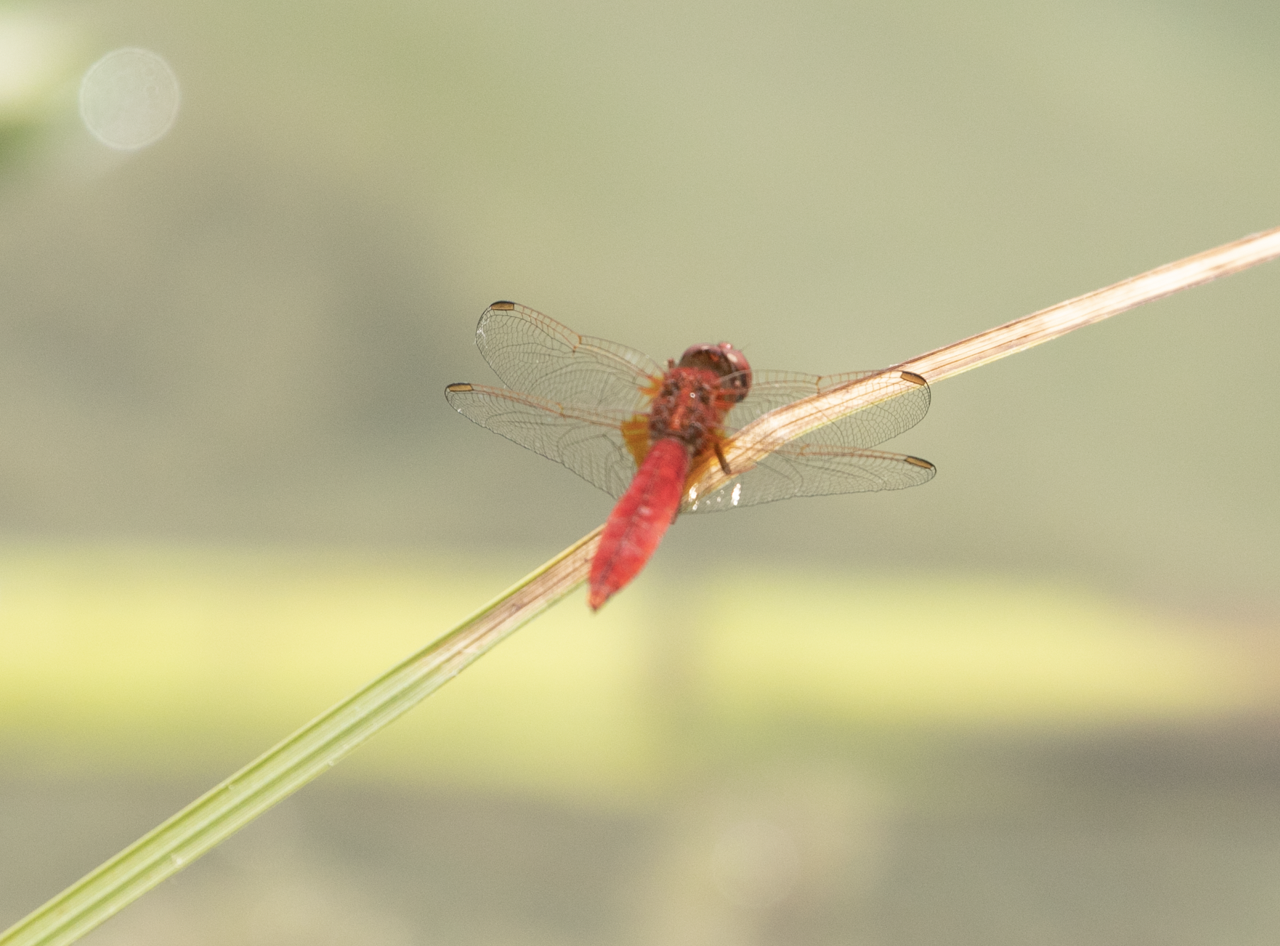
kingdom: Animalia
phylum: Arthropoda
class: Insecta
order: Odonata
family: Libellulidae
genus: Crocothemis
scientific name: Crocothemis erythraea
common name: Scarlet dragonfly
